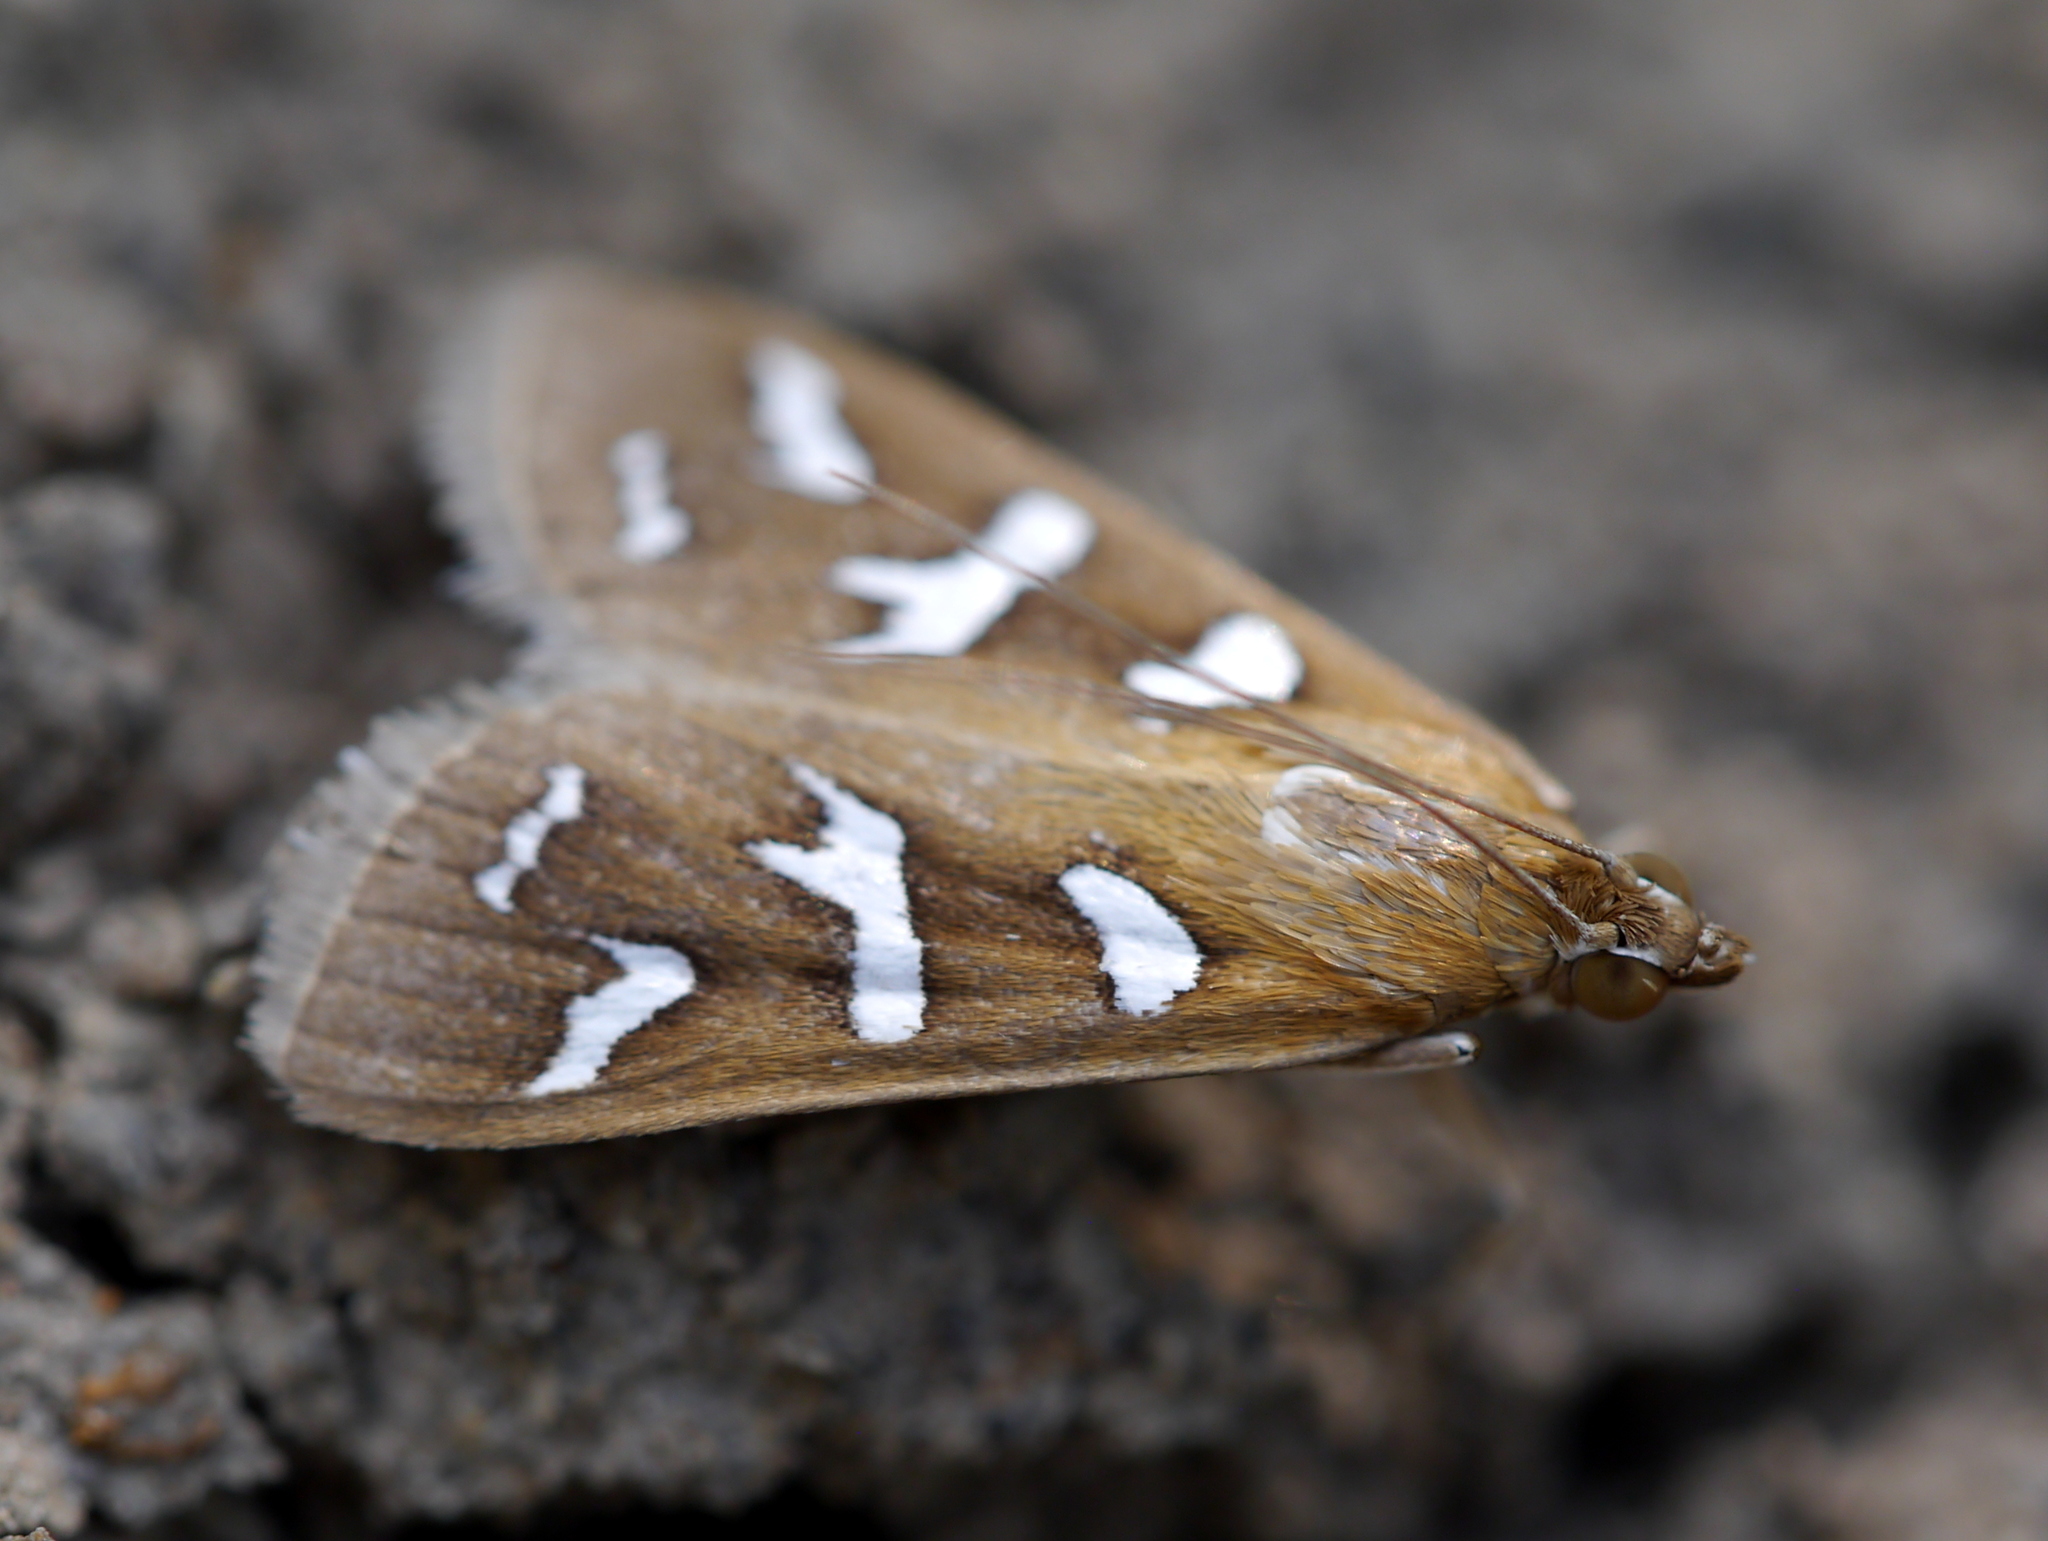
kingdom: Animalia
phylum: Arthropoda
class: Insecta
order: Lepidoptera
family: Crambidae
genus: Diastictis
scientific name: Diastictis fracturalis
